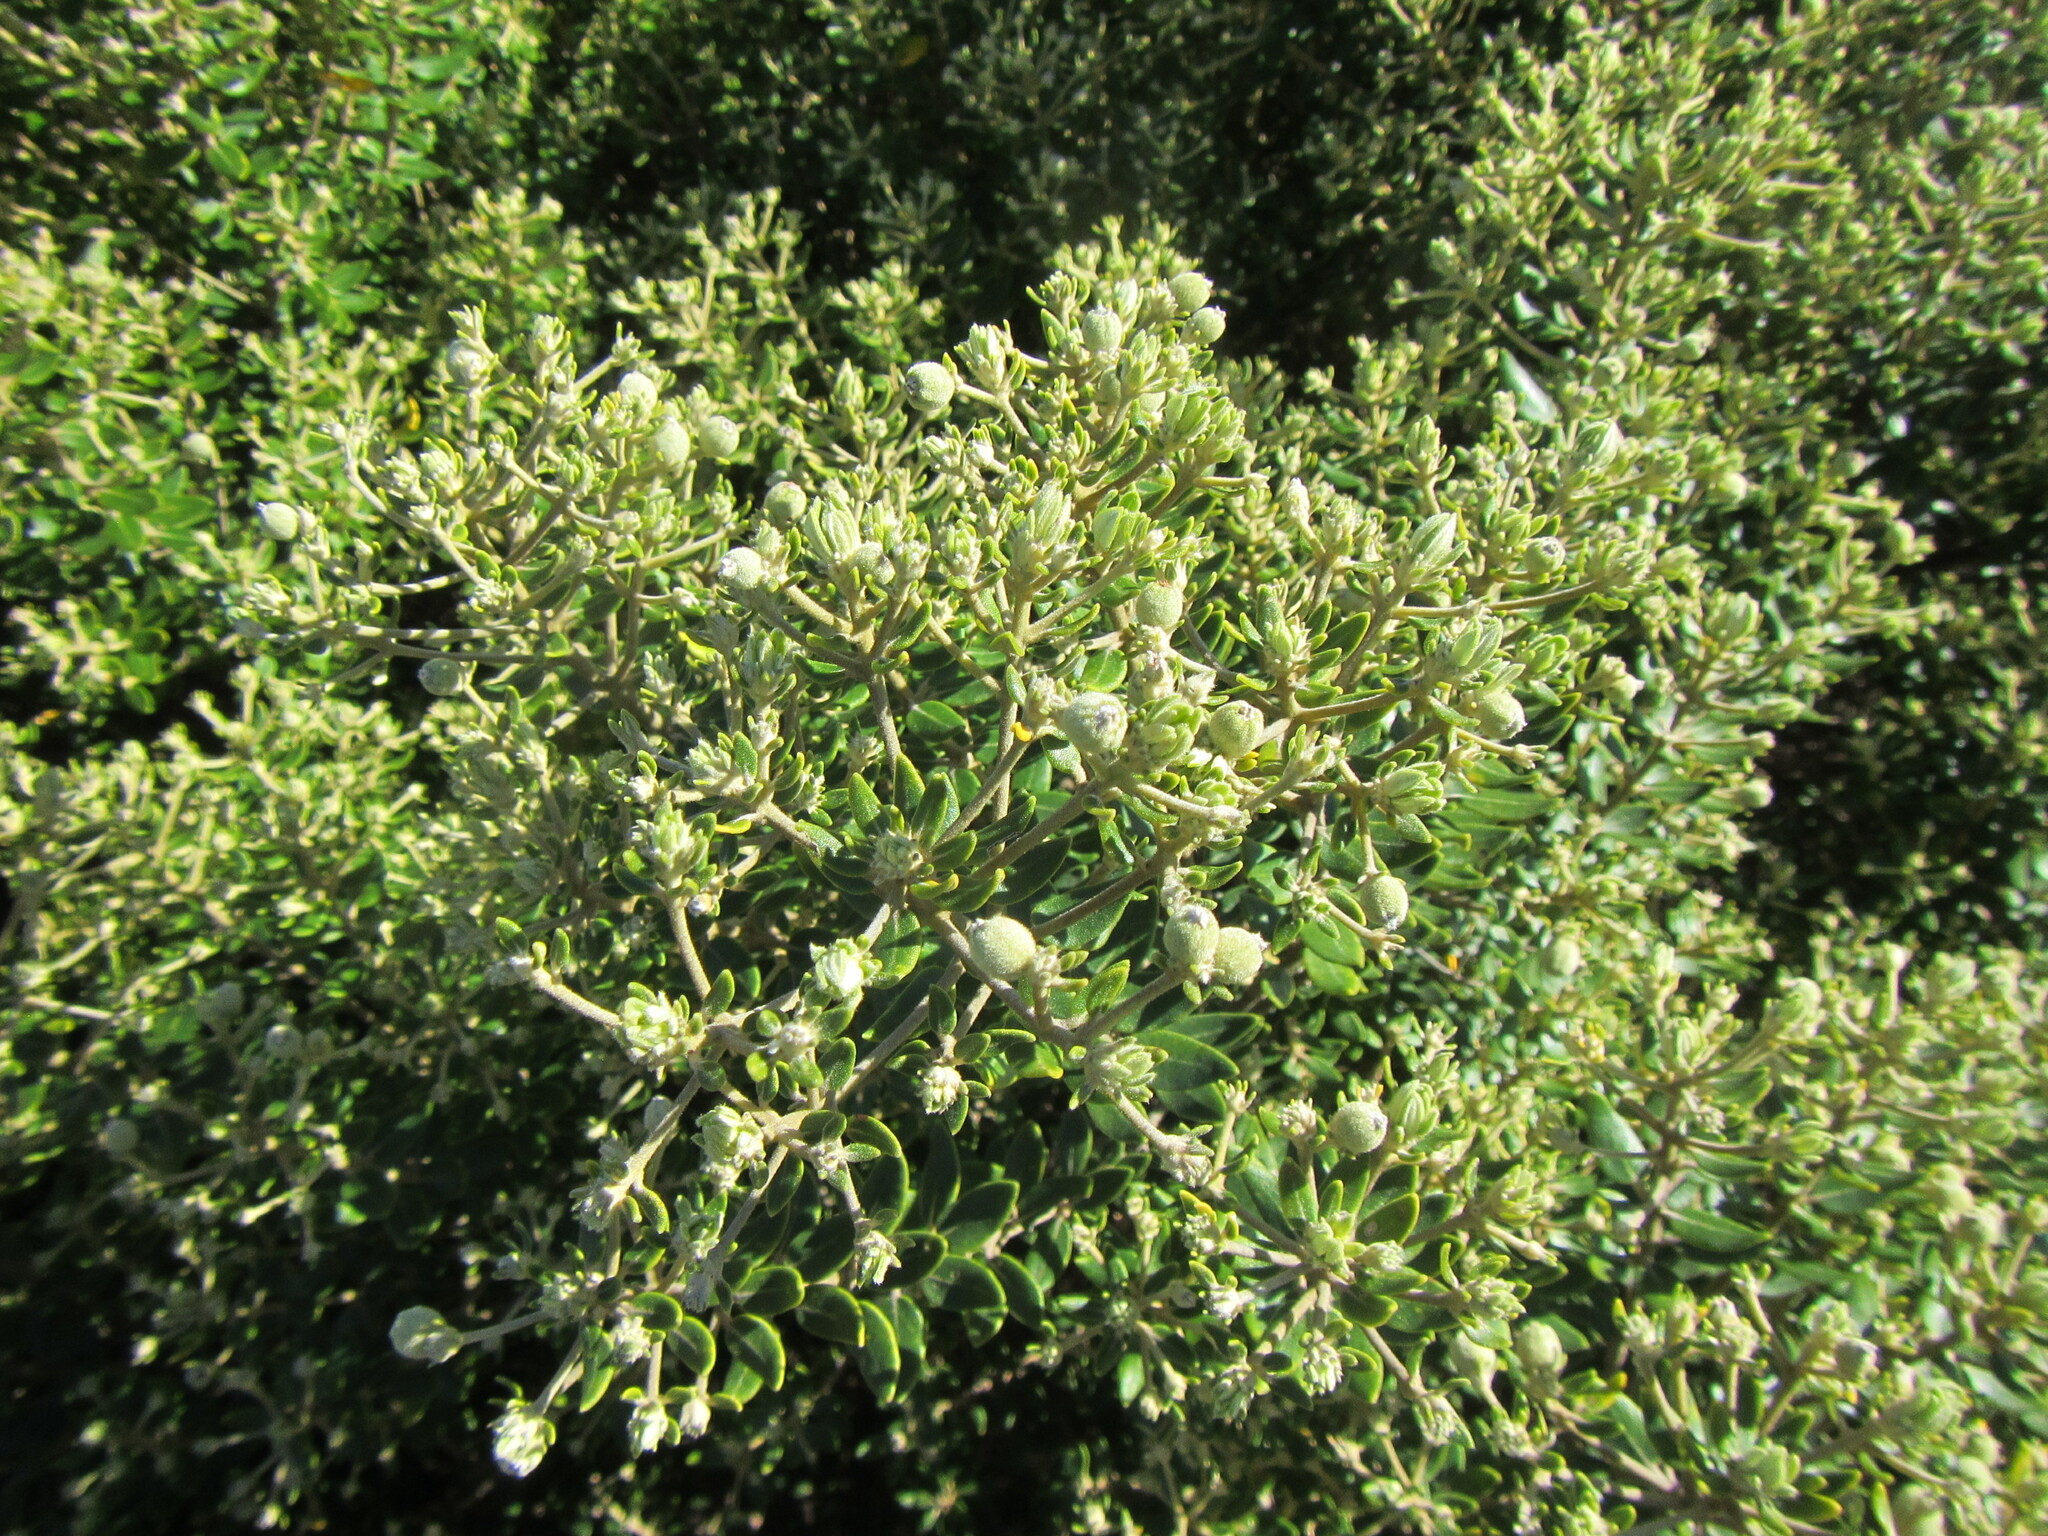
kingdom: Plantae
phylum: Tracheophyta
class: Magnoliopsida
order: Rosales
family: Rhamnaceae
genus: Phylica
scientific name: Phylica buxifolia
